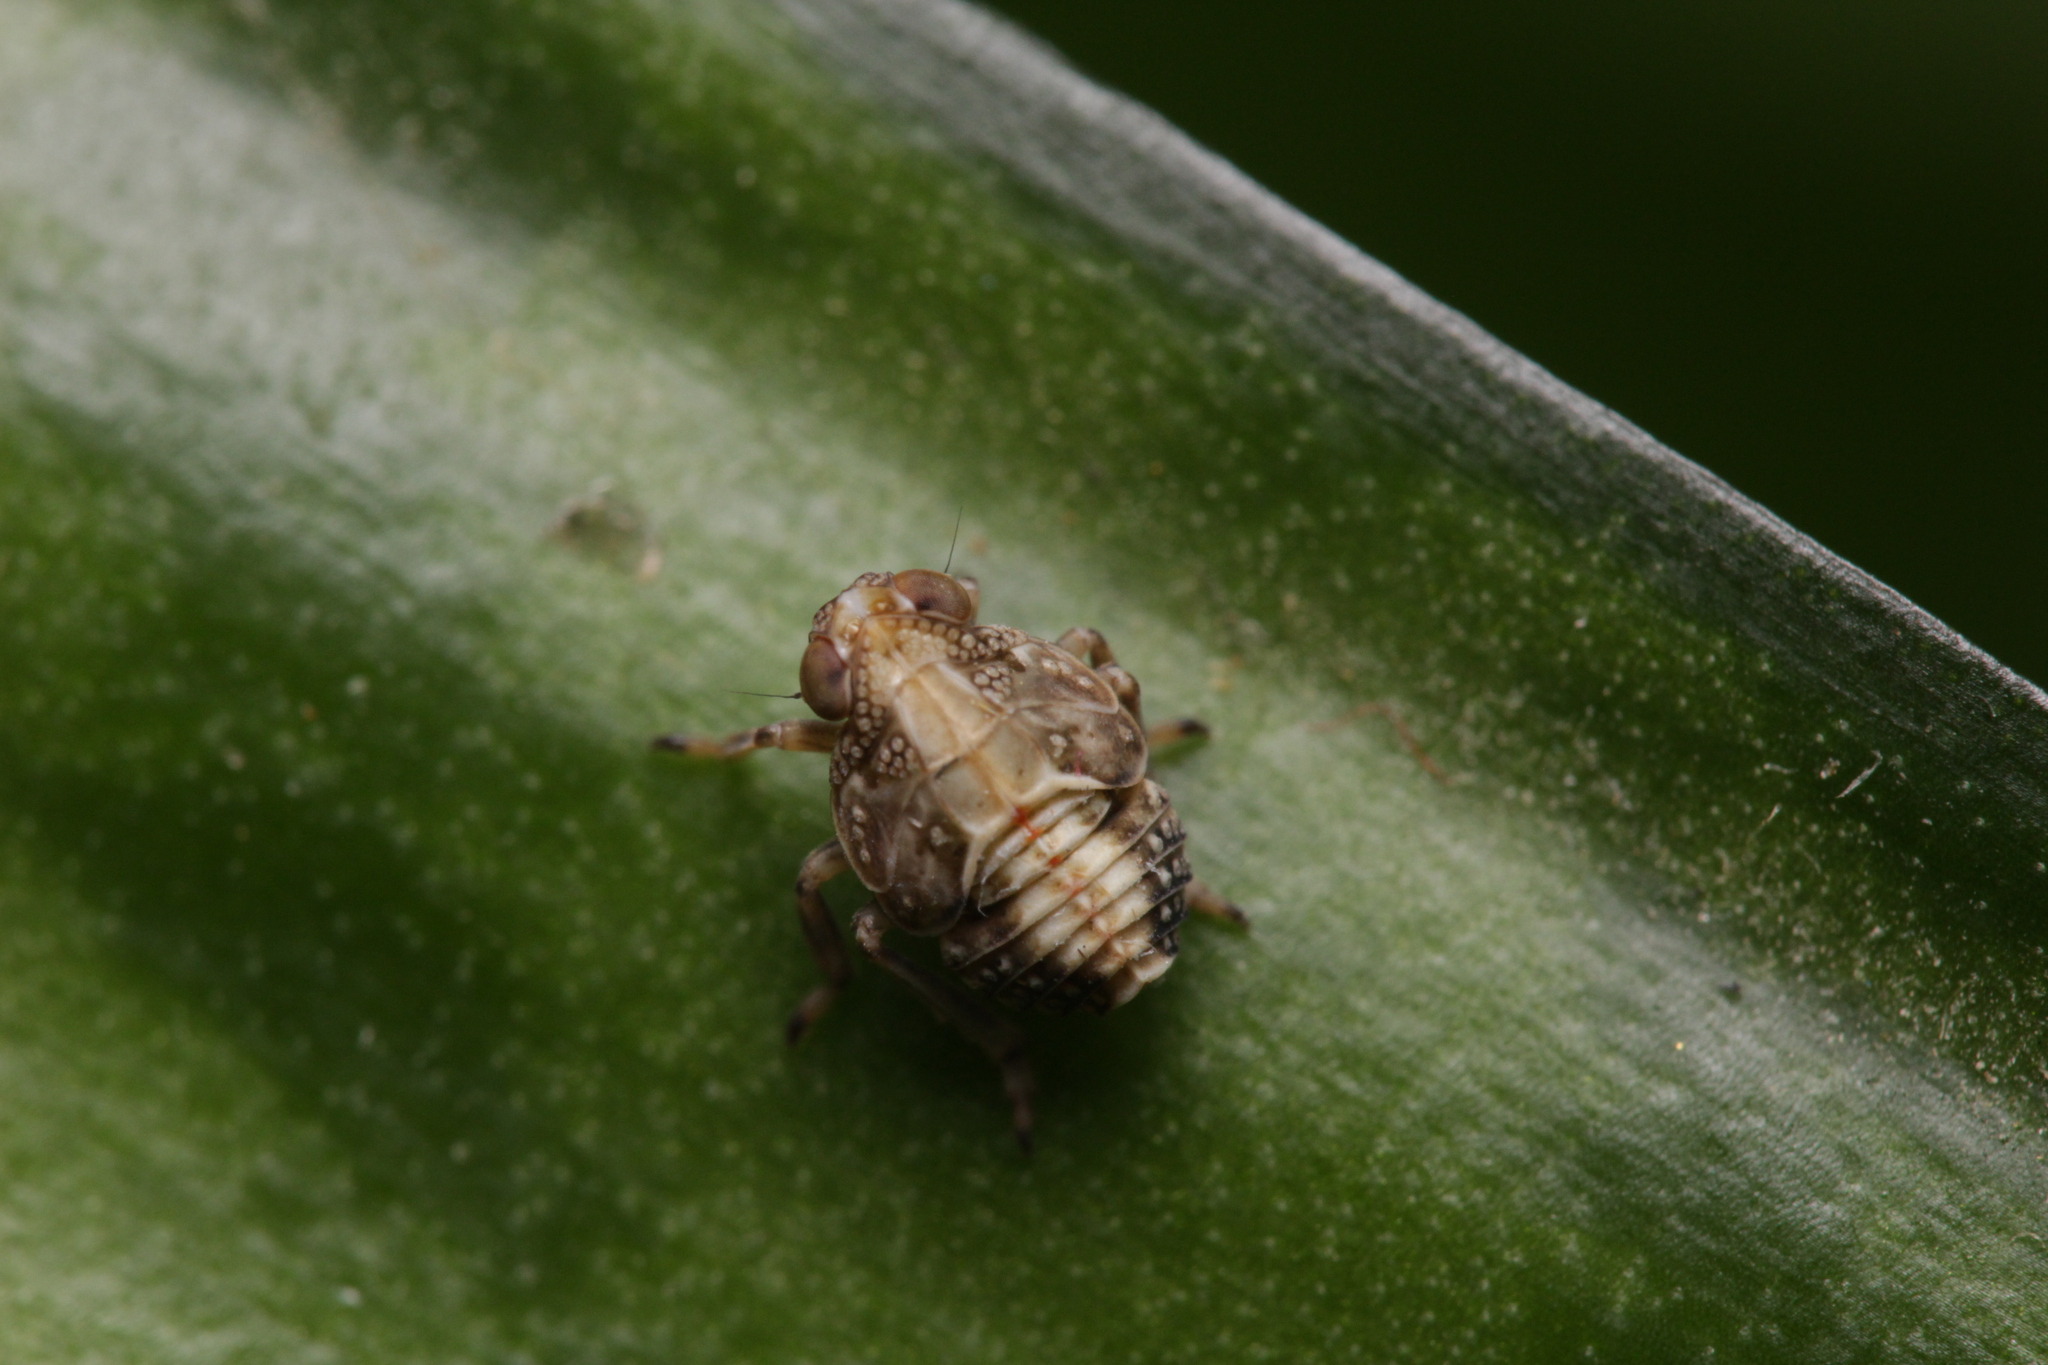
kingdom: Animalia
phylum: Arthropoda
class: Insecta
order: Hemiptera
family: Issidae
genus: Issus
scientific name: Issus coleoptratus
